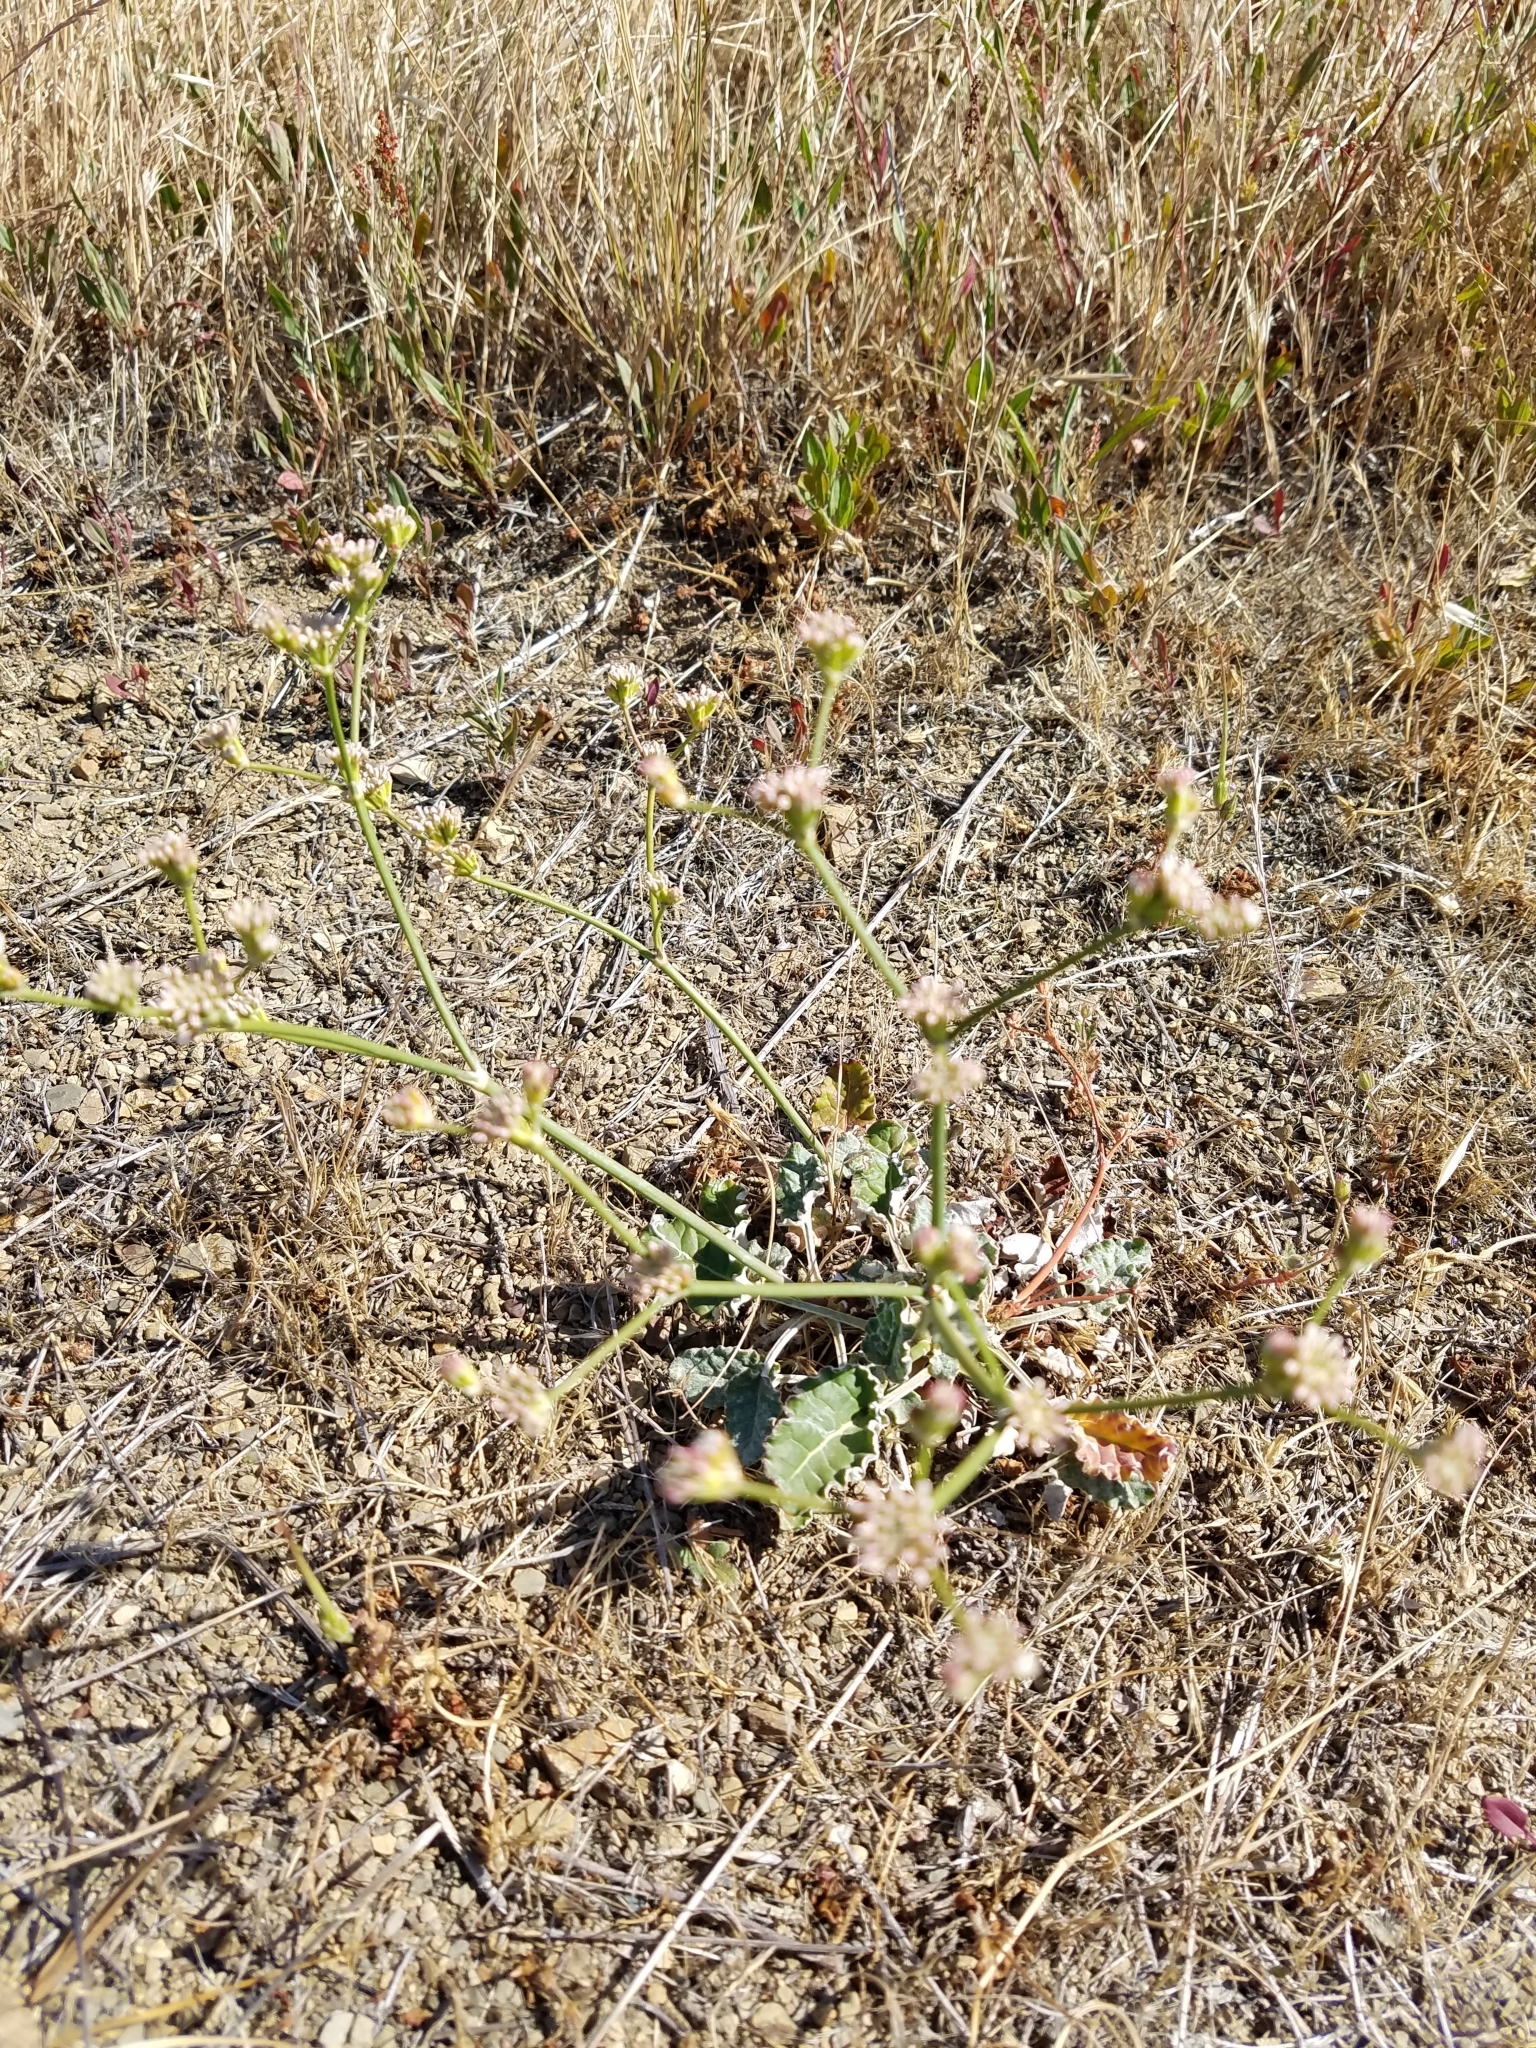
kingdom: Plantae
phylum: Tracheophyta
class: Magnoliopsida
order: Caryophyllales
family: Polygonaceae
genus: Eriogonum
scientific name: Eriogonum nudum
